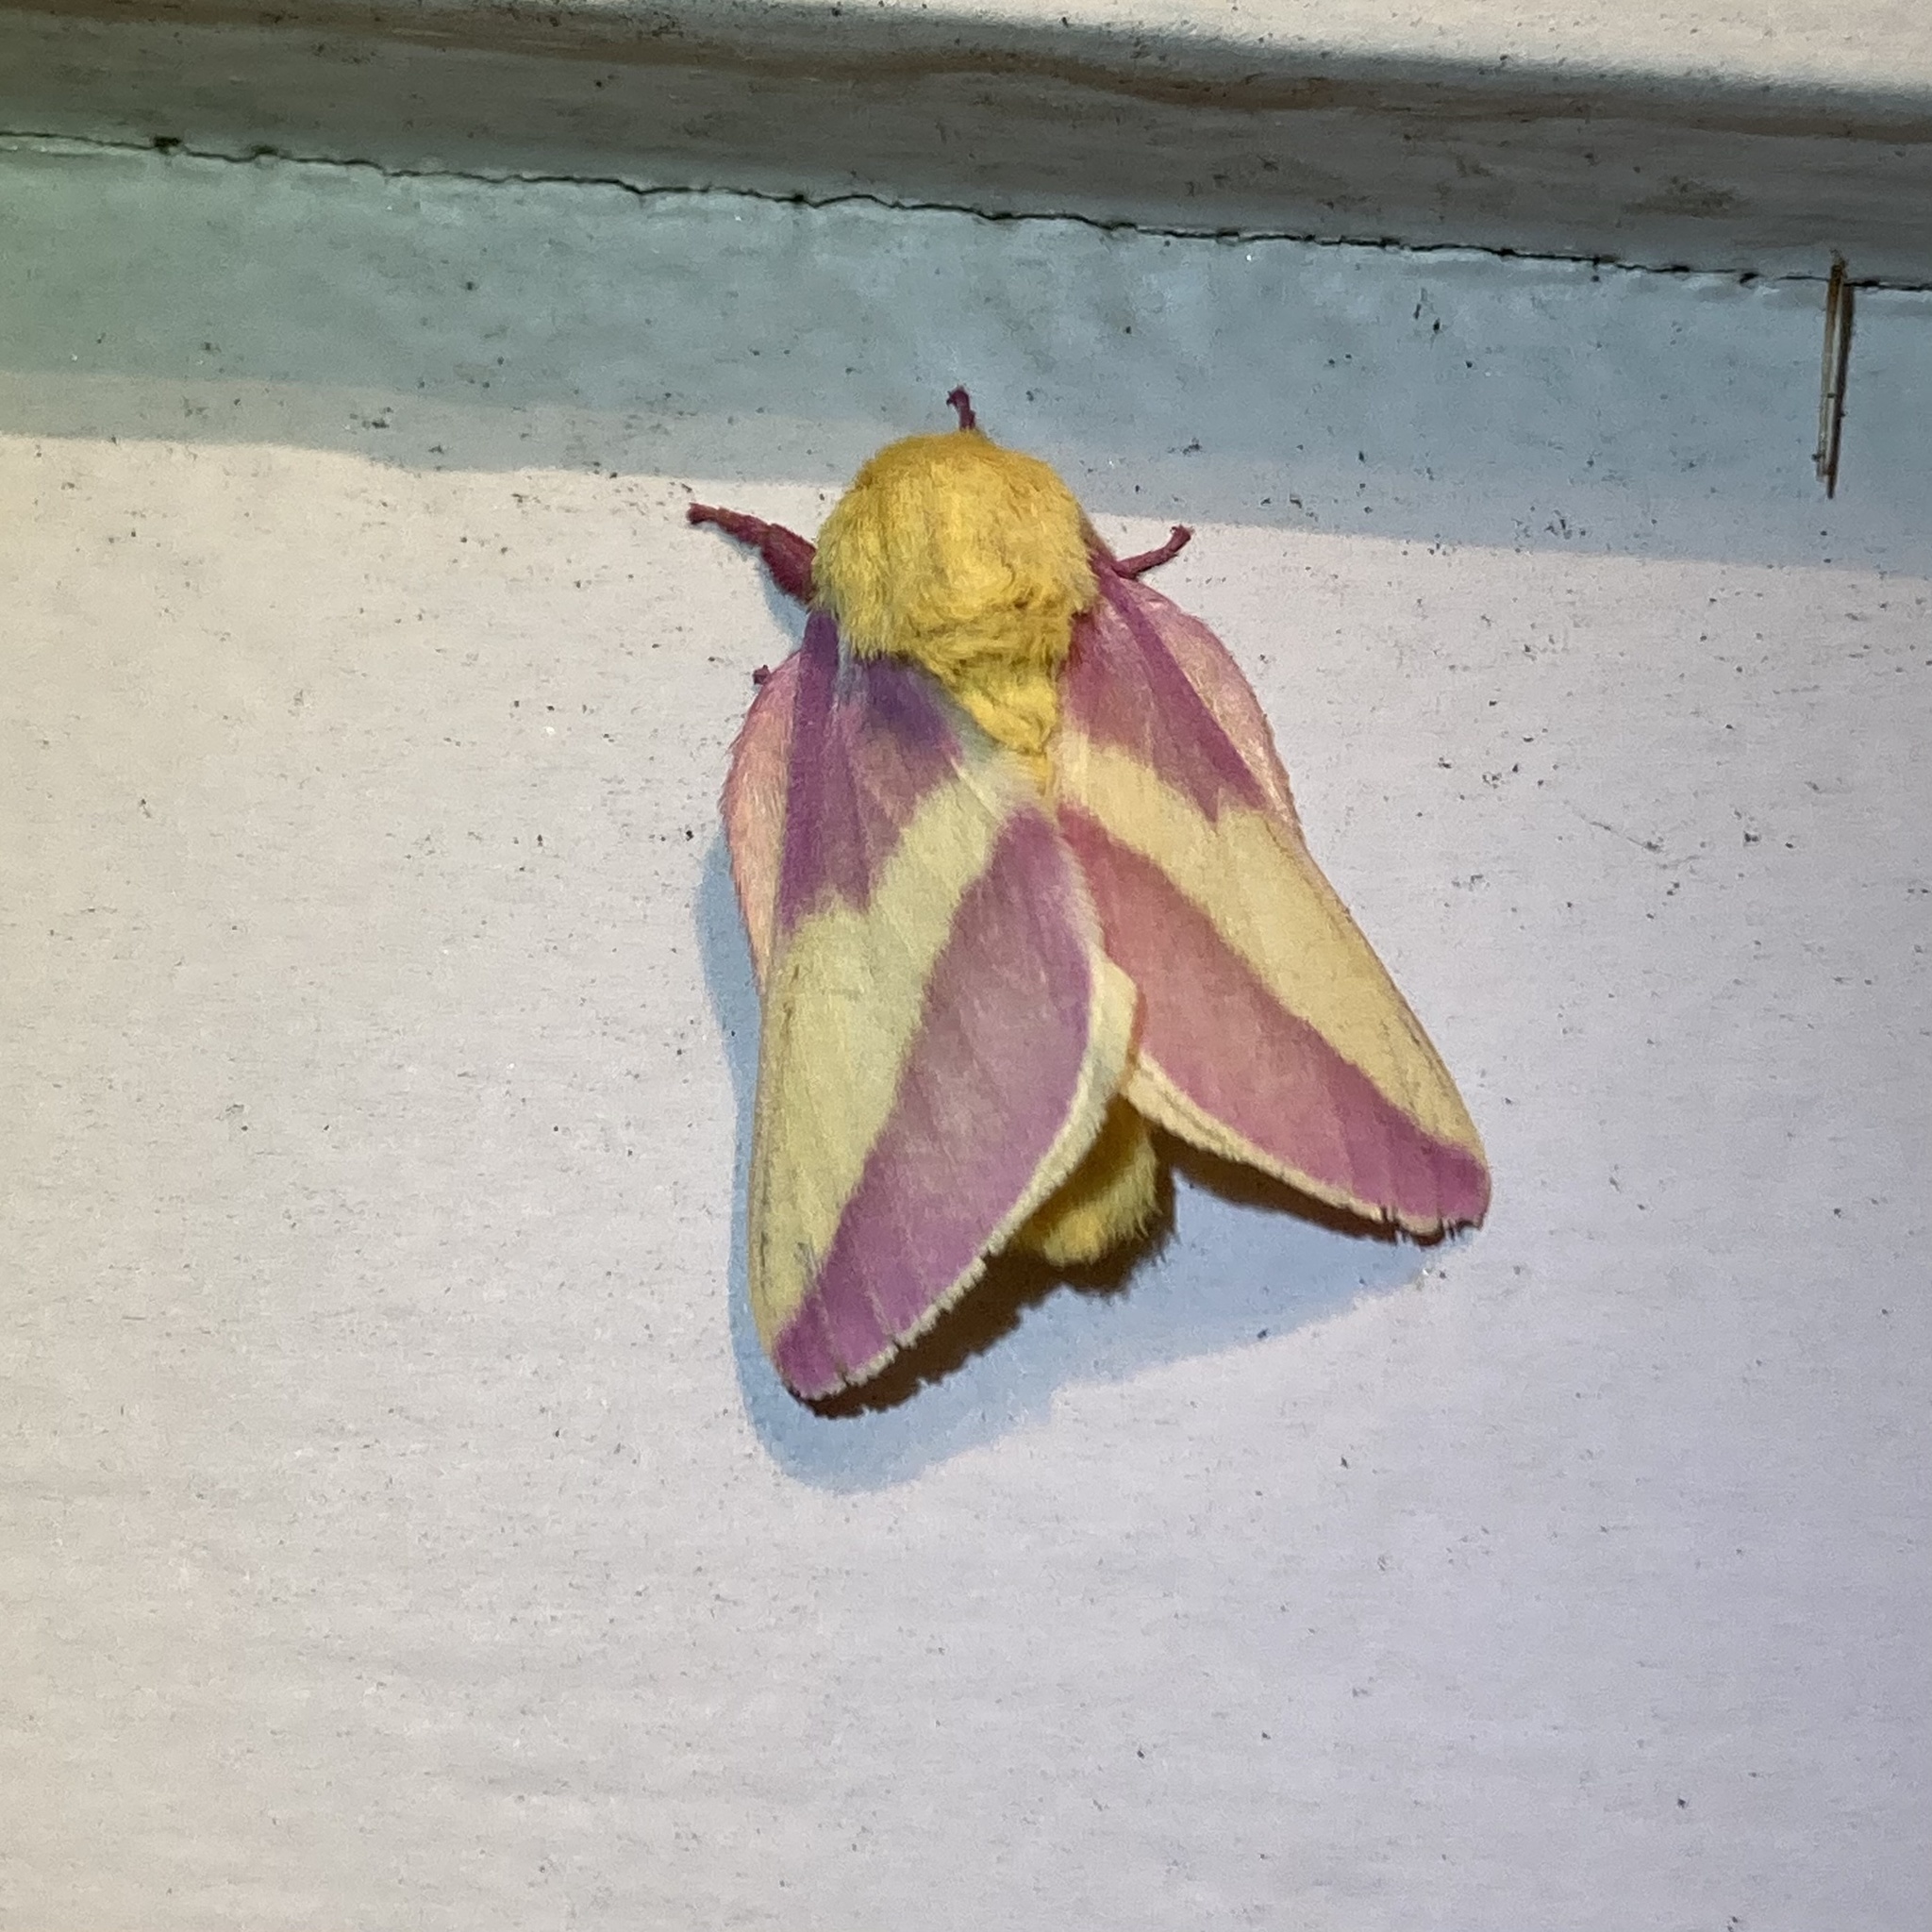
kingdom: Animalia
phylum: Arthropoda
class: Insecta
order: Lepidoptera
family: Saturniidae
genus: Dryocampa
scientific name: Dryocampa rubicunda
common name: Rosy maple moth
